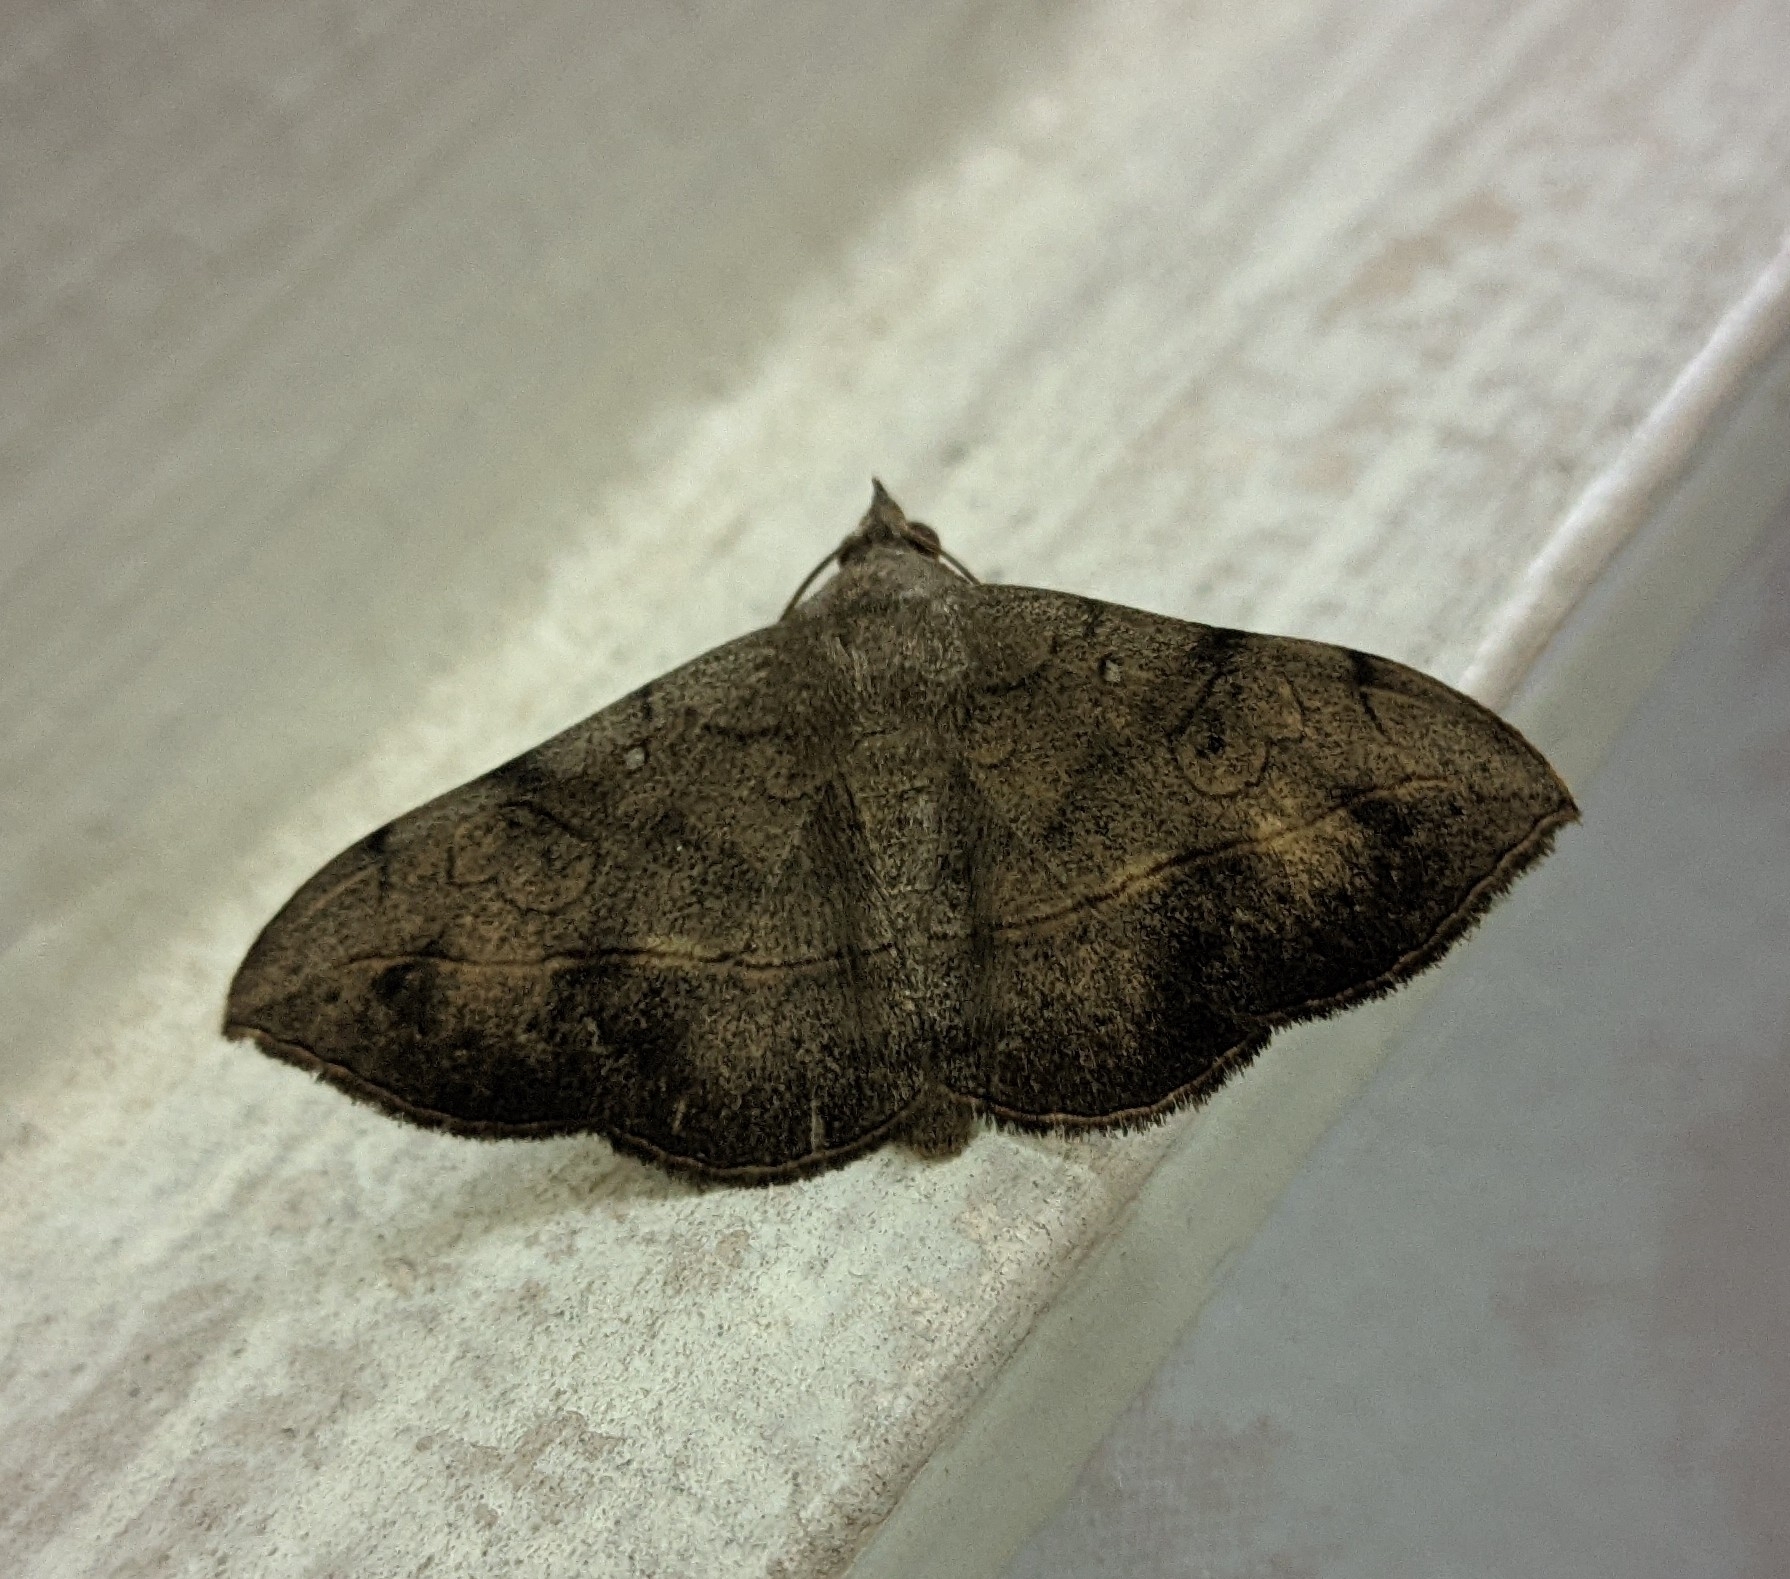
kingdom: Animalia
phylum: Arthropoda
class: Insecta
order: Lepidoptera
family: Erebidae
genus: Anticarsia
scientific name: Anticarsia irrorata
